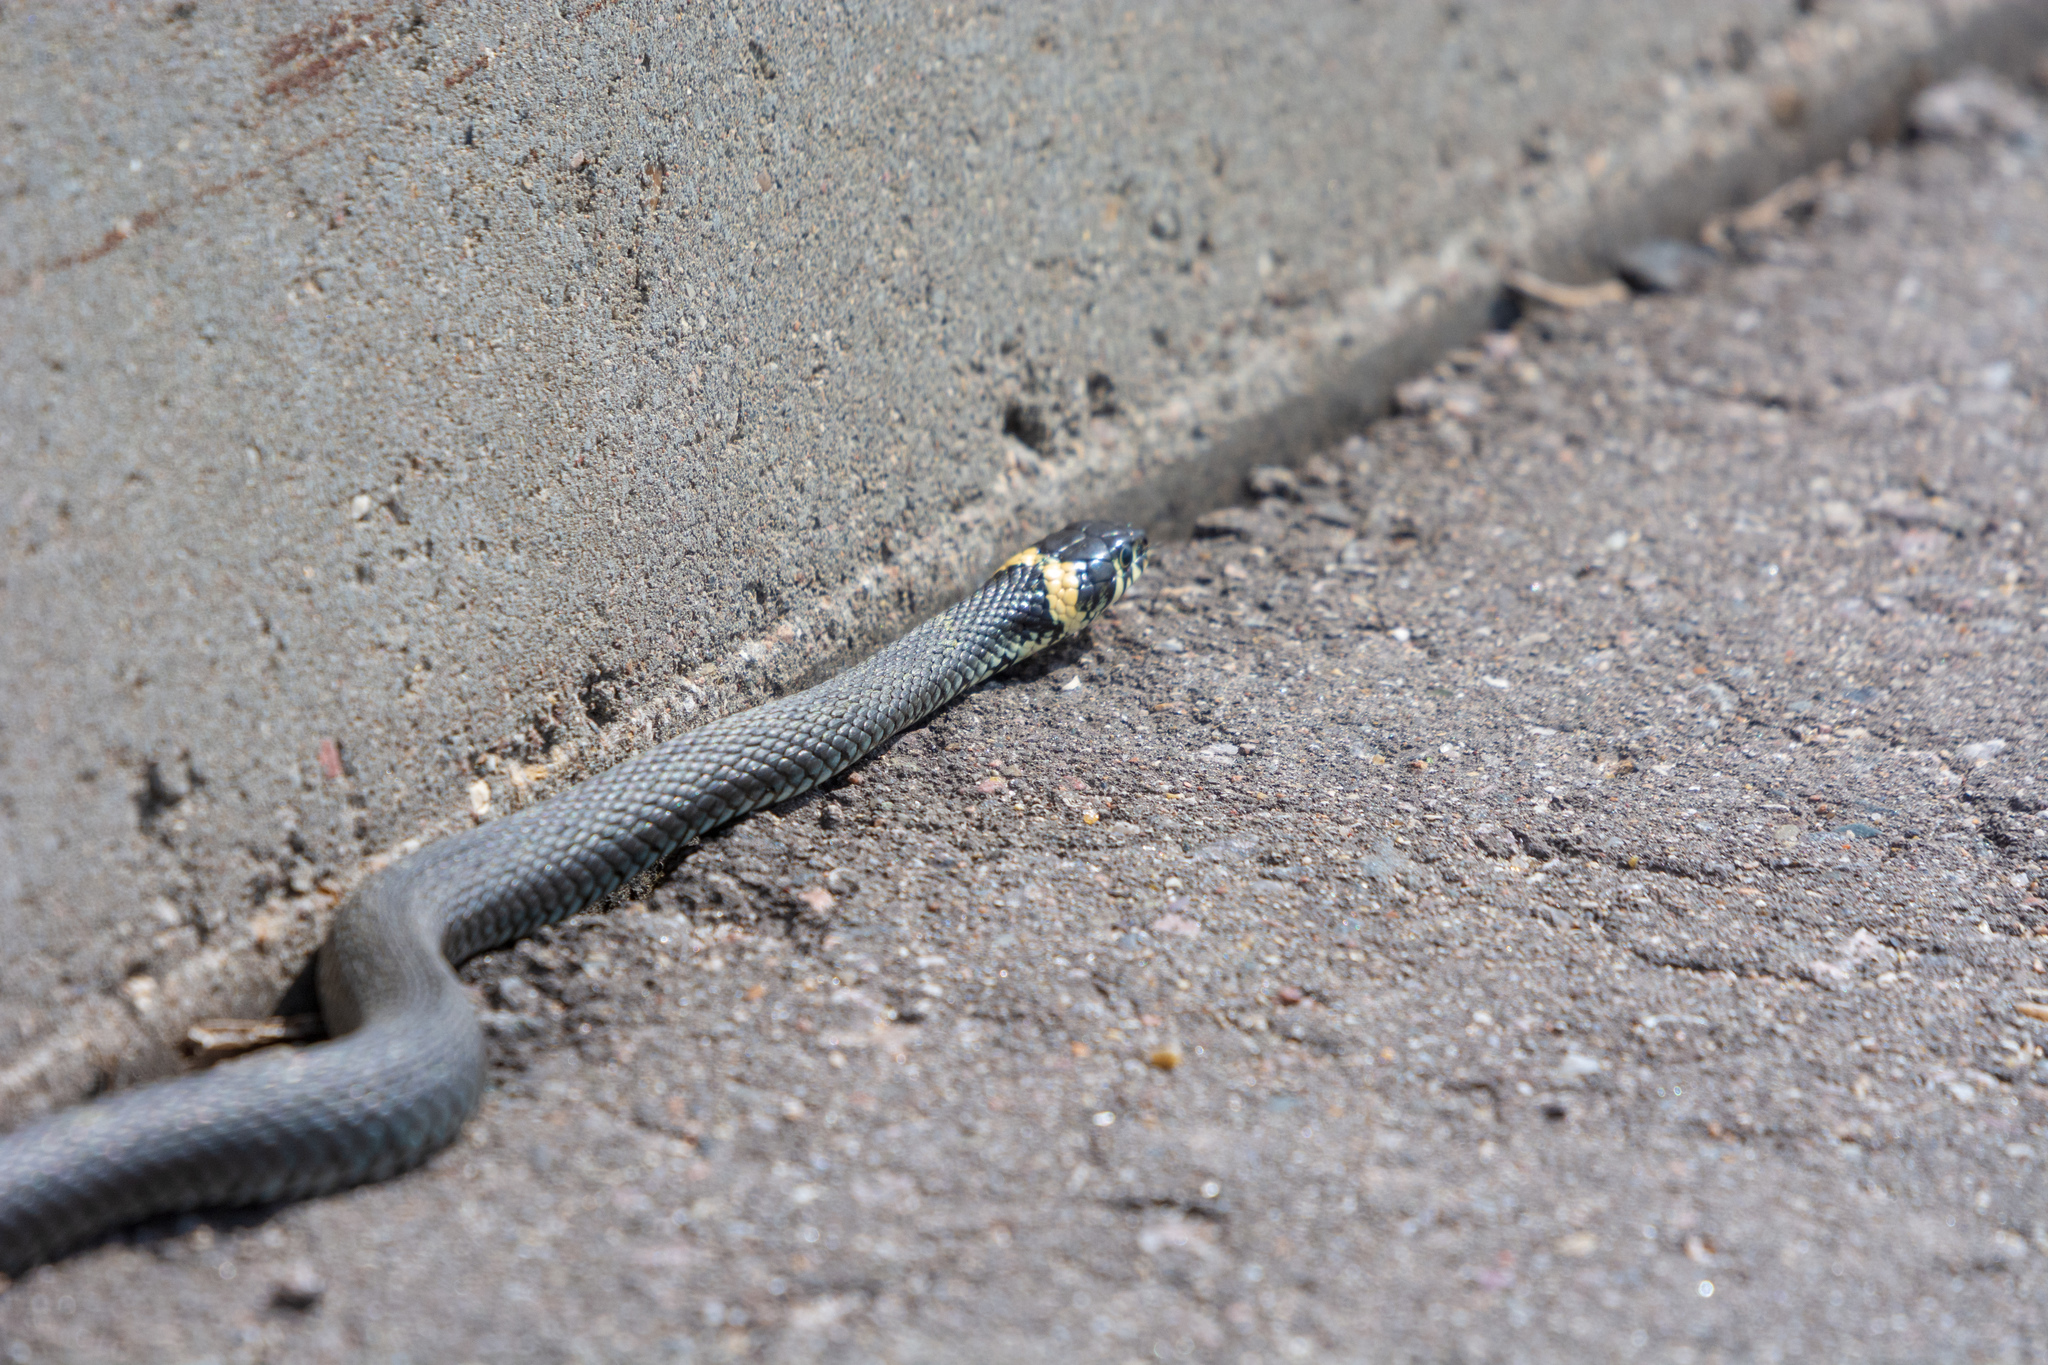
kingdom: Animalia
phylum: Chordata
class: Squamata
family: Colubridae
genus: Natrix
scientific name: Natrix natrix
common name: Grass snake
